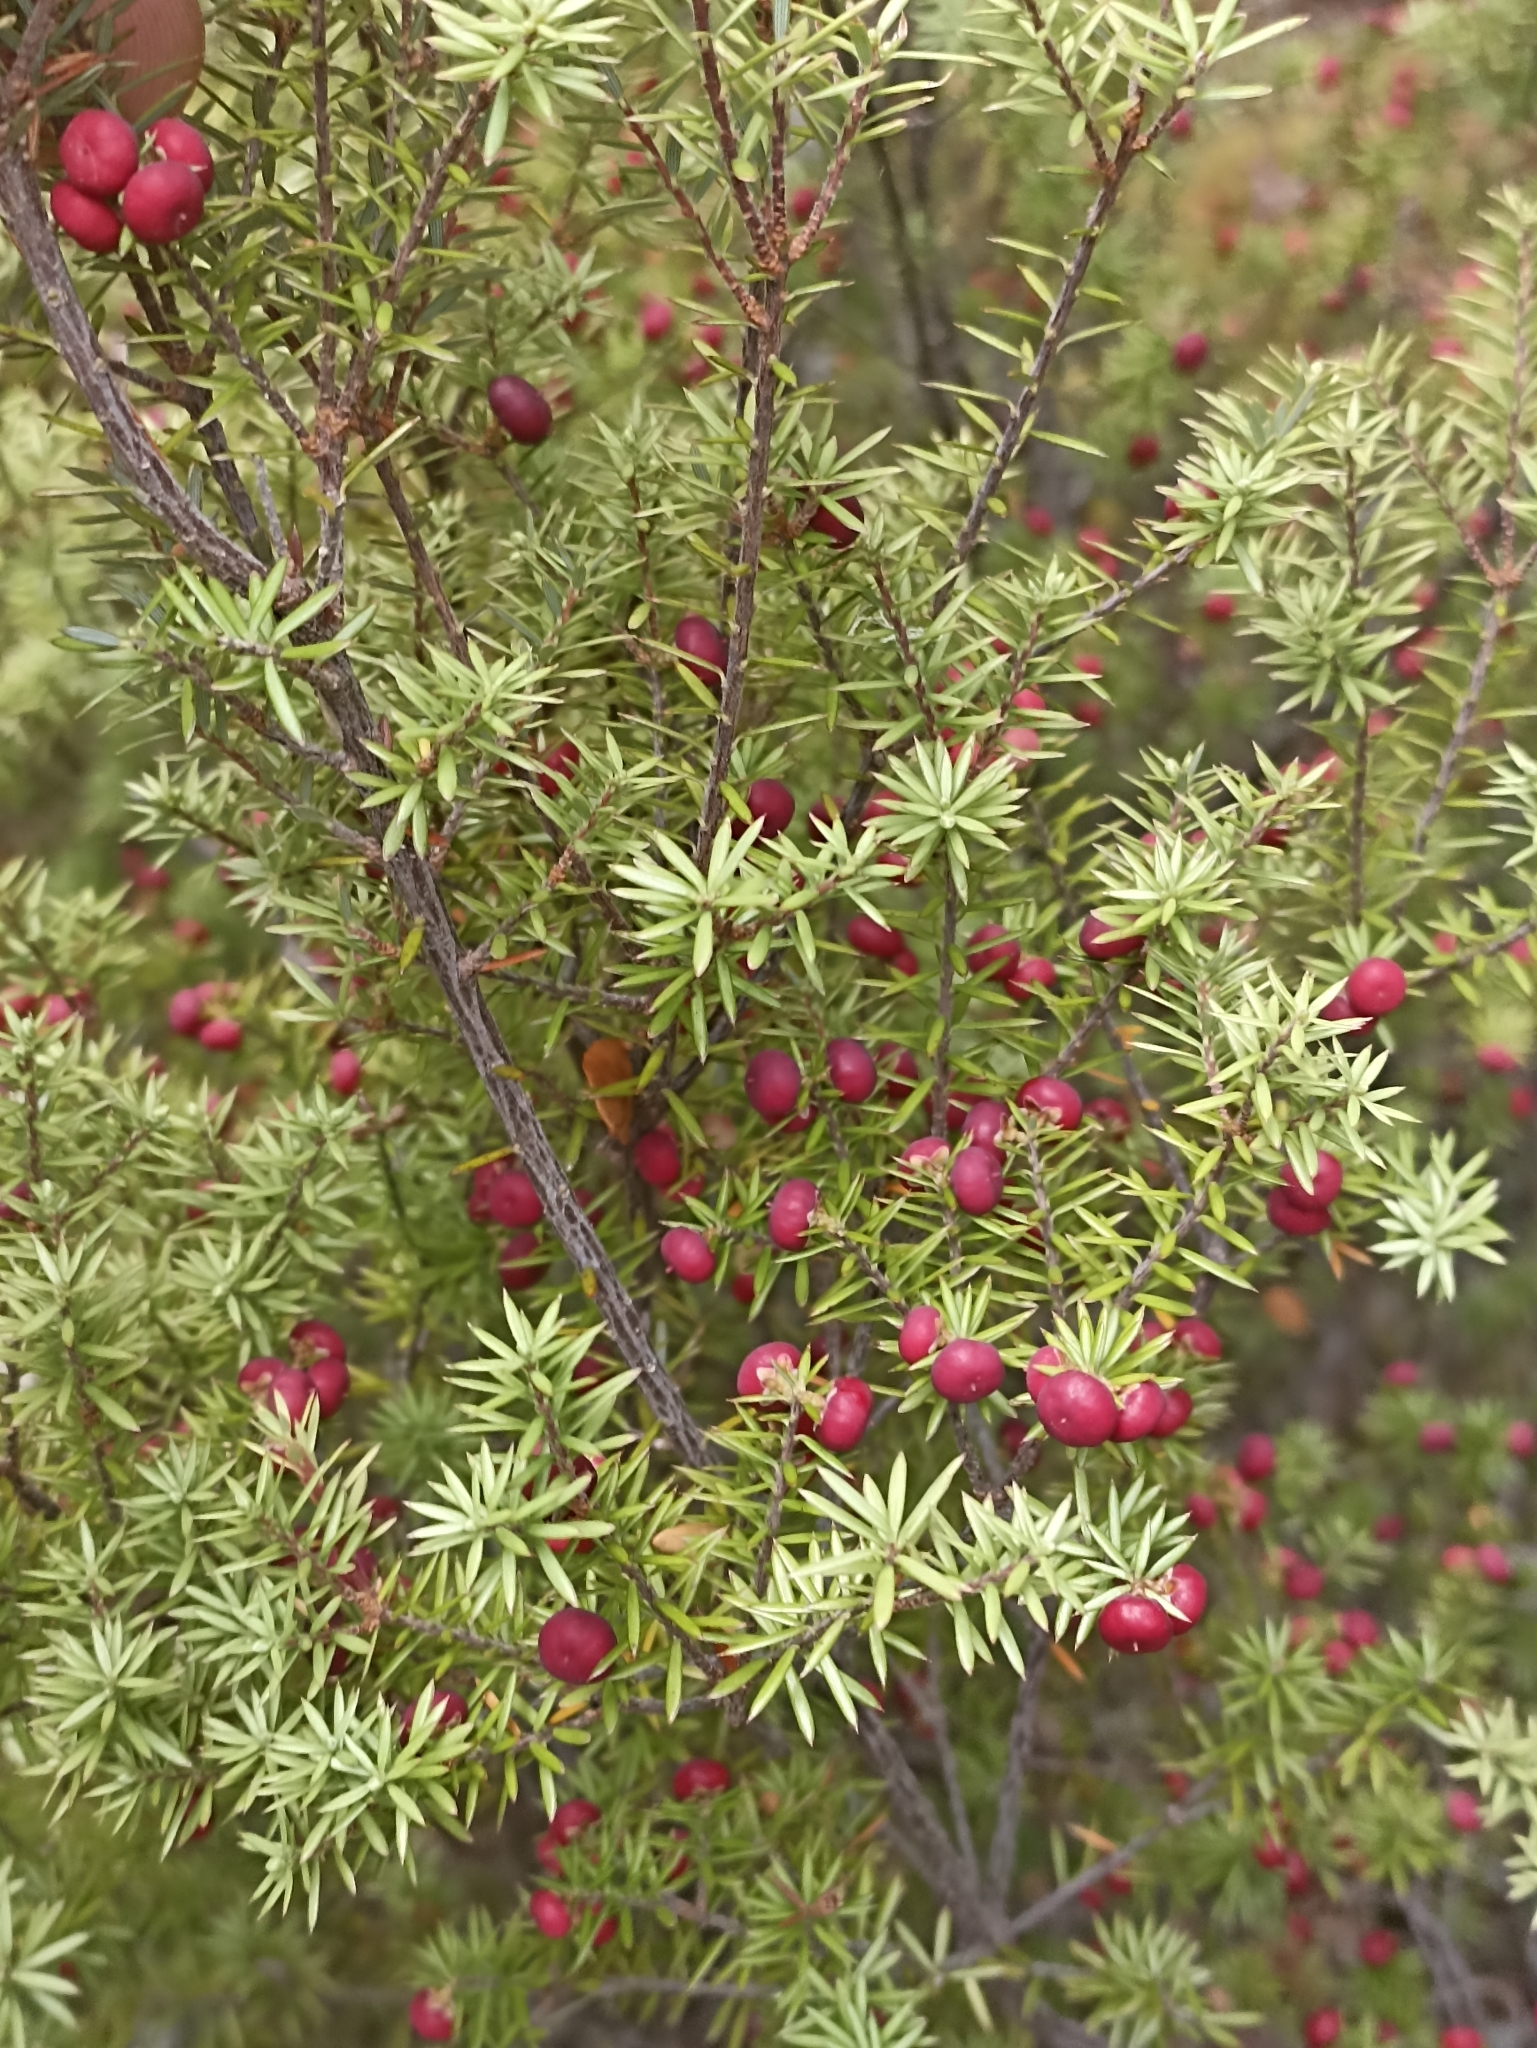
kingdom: Plantae
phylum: Tracheophyta
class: Magnoliopsida
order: Ericales
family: Ericaceae
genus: Leptecophylla
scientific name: Leptecophylla juniperina
